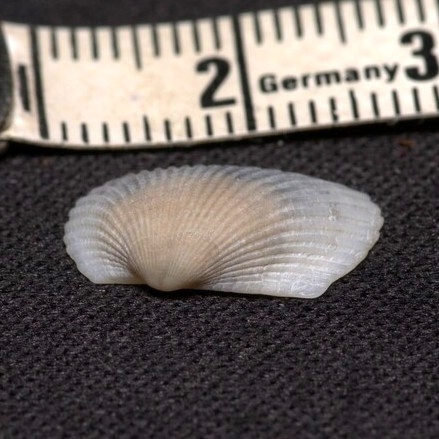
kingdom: Animalia
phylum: Mollusca
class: Bivalvia
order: Arcida
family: Arcidae
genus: Anadara
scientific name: Anadara transversa
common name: Transverse ark
